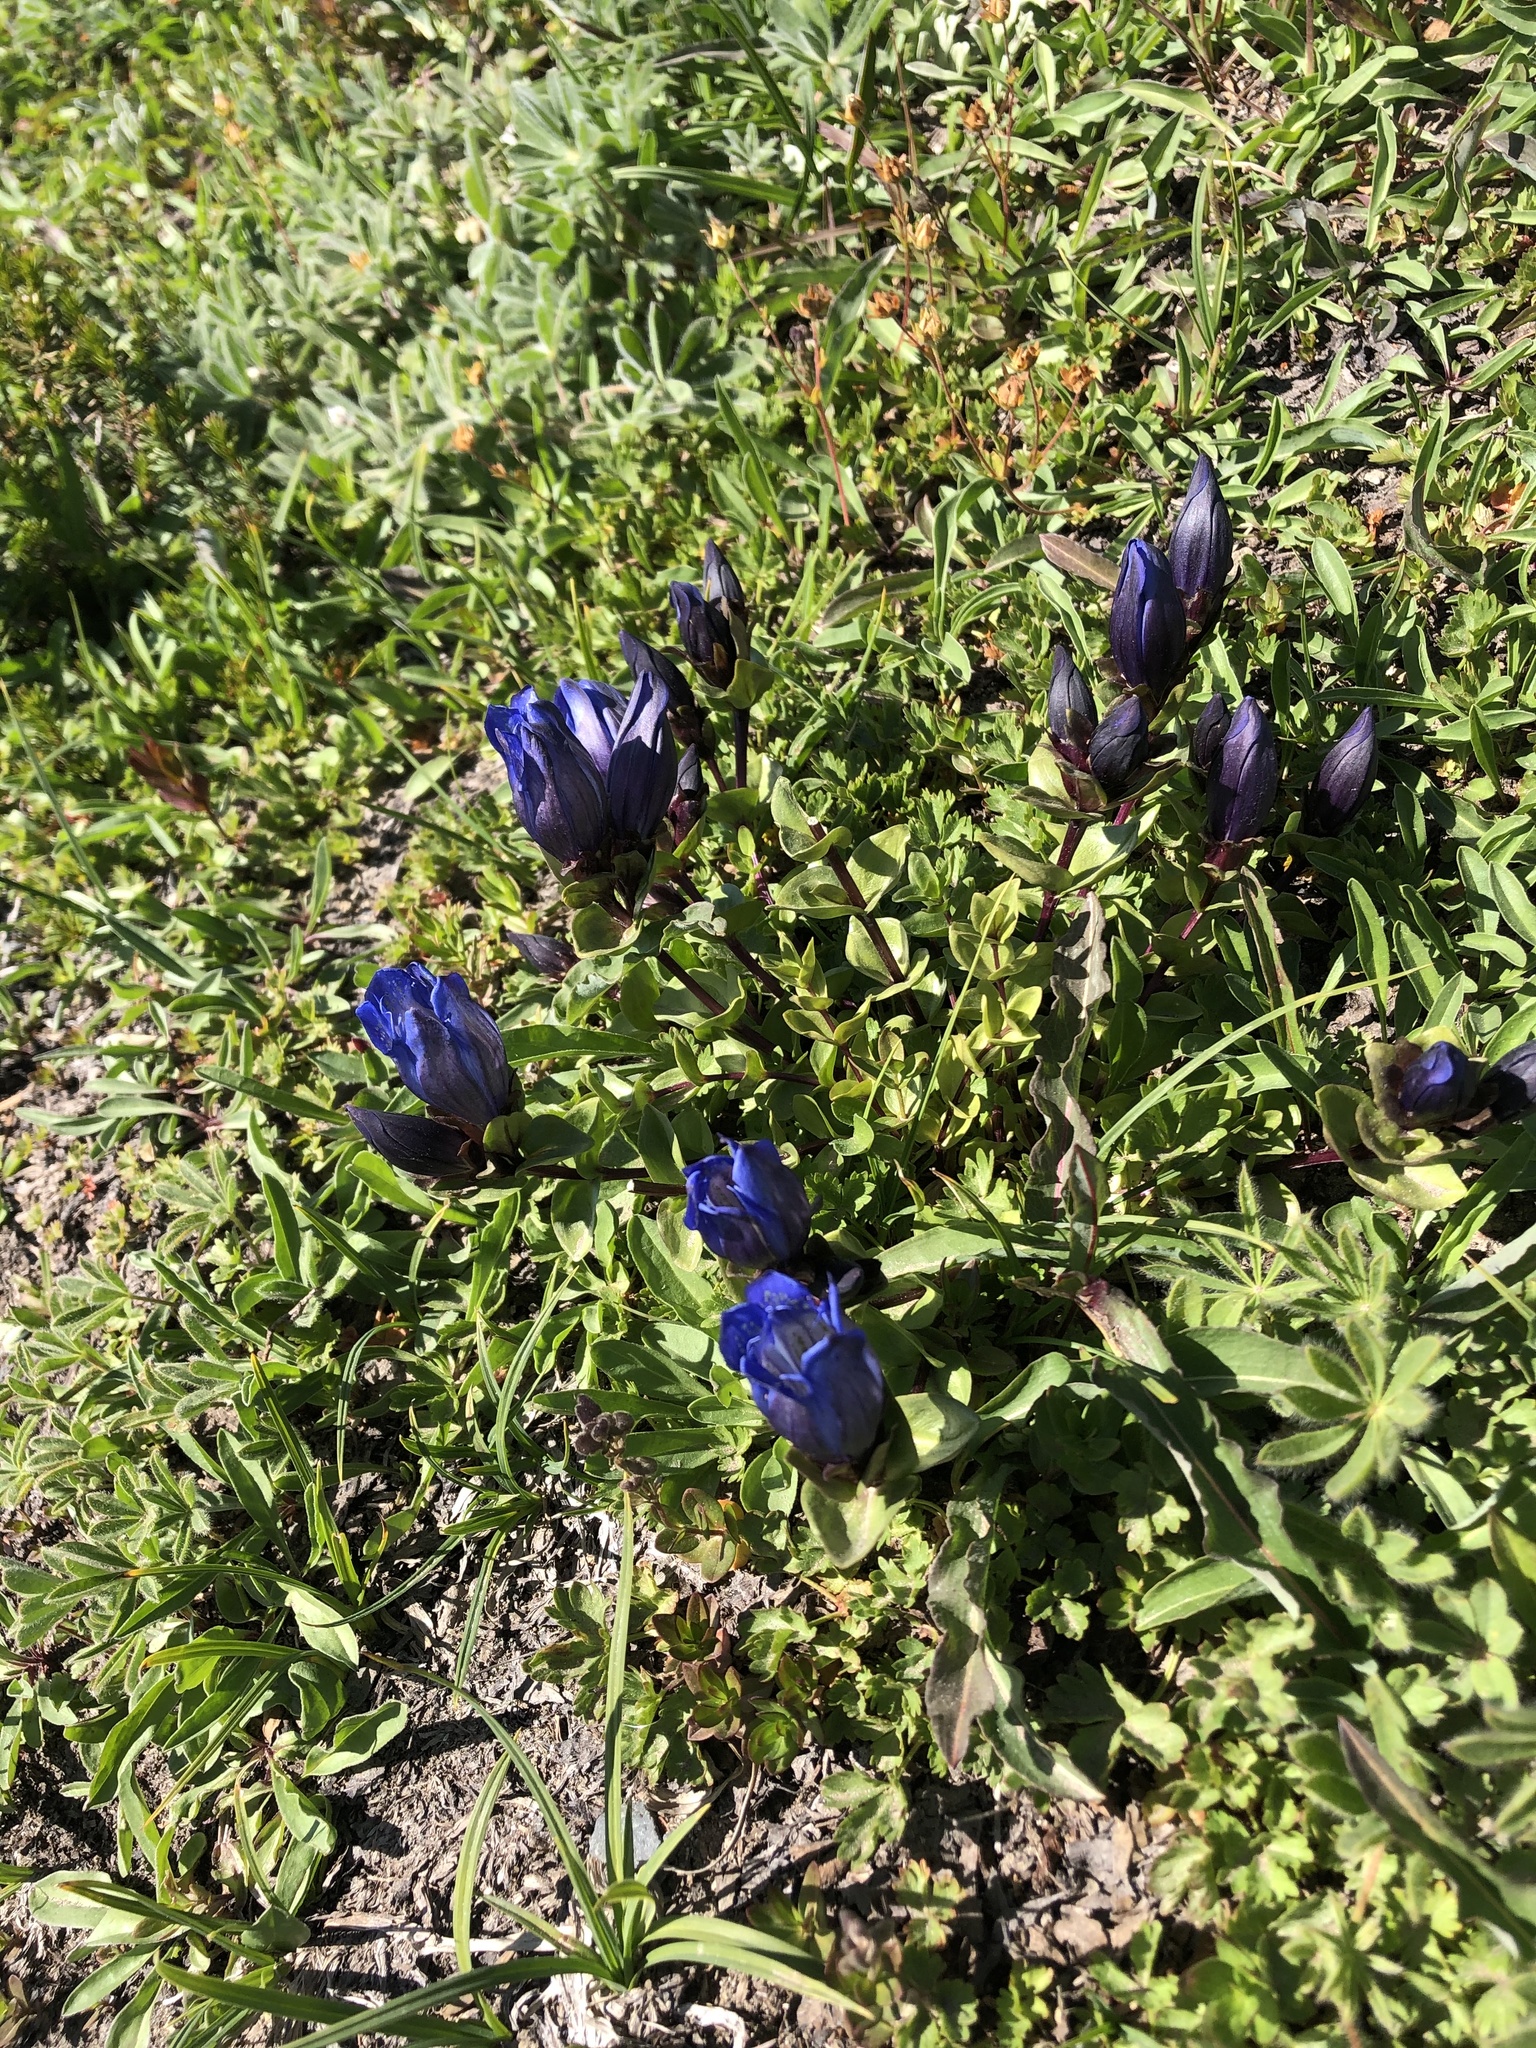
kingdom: Plantae
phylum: Tracheophyta
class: Magnoliopsida
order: Gentianales
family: Gentianaceae
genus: Gentiana
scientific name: Gentiana calycosa
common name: Rainier pleated gentian
